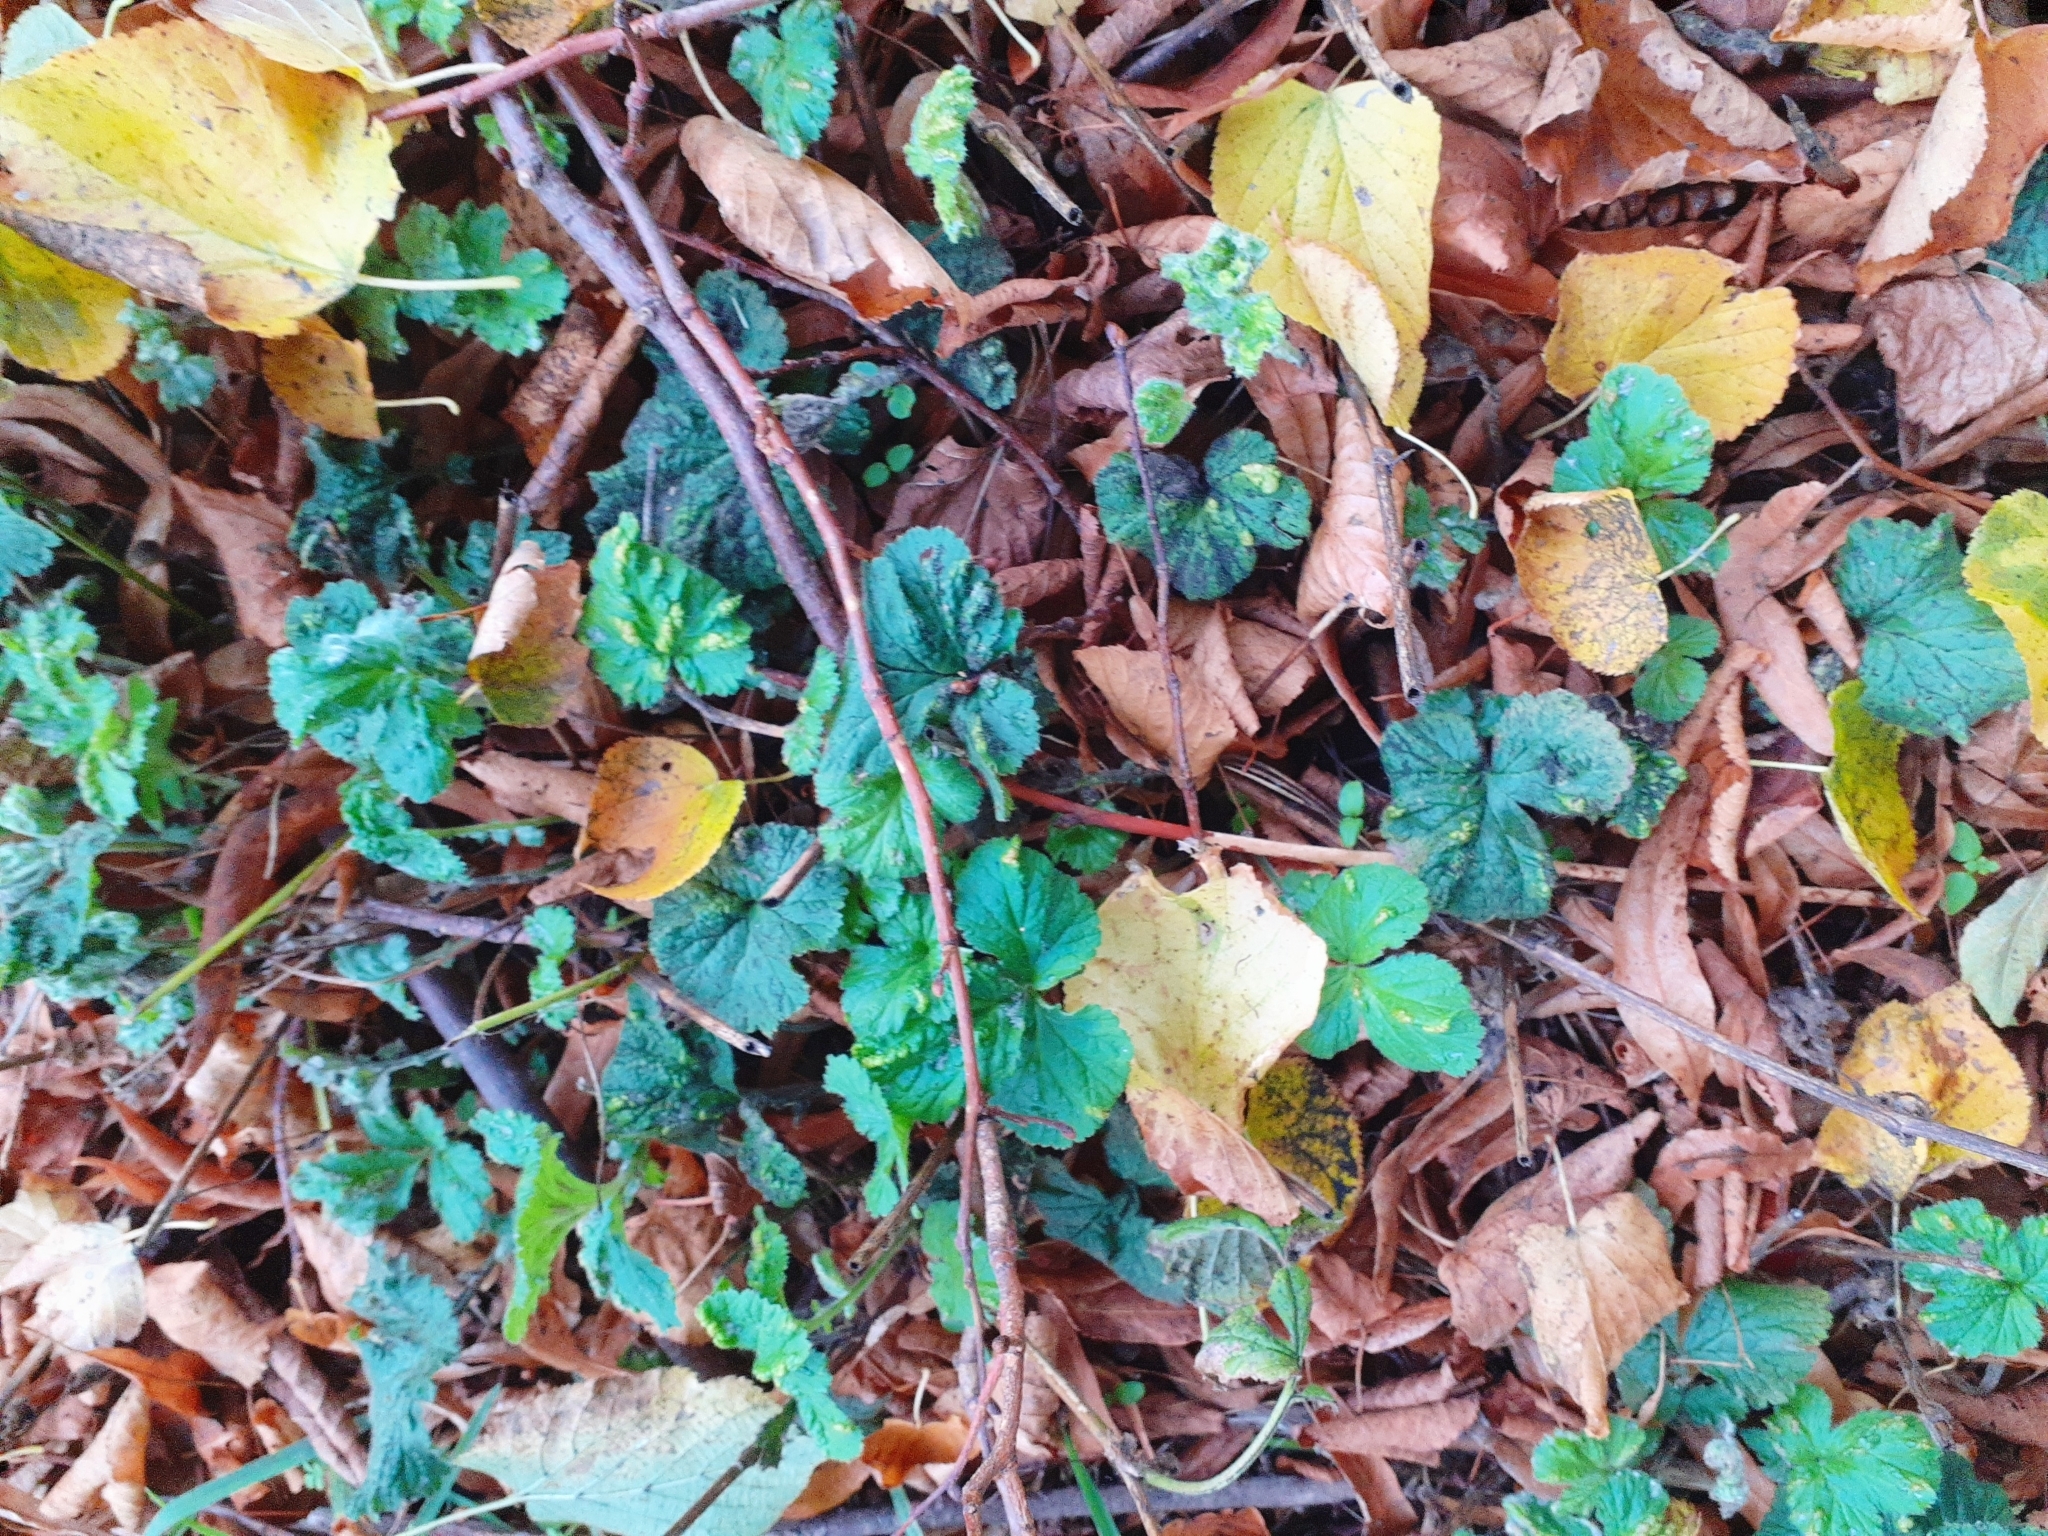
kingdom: Animalia
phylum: Arthropoda
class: Arachnida
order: Trombidiformes
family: Eriophyidae
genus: Cecidophyes
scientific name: Cecidophyes nudus
